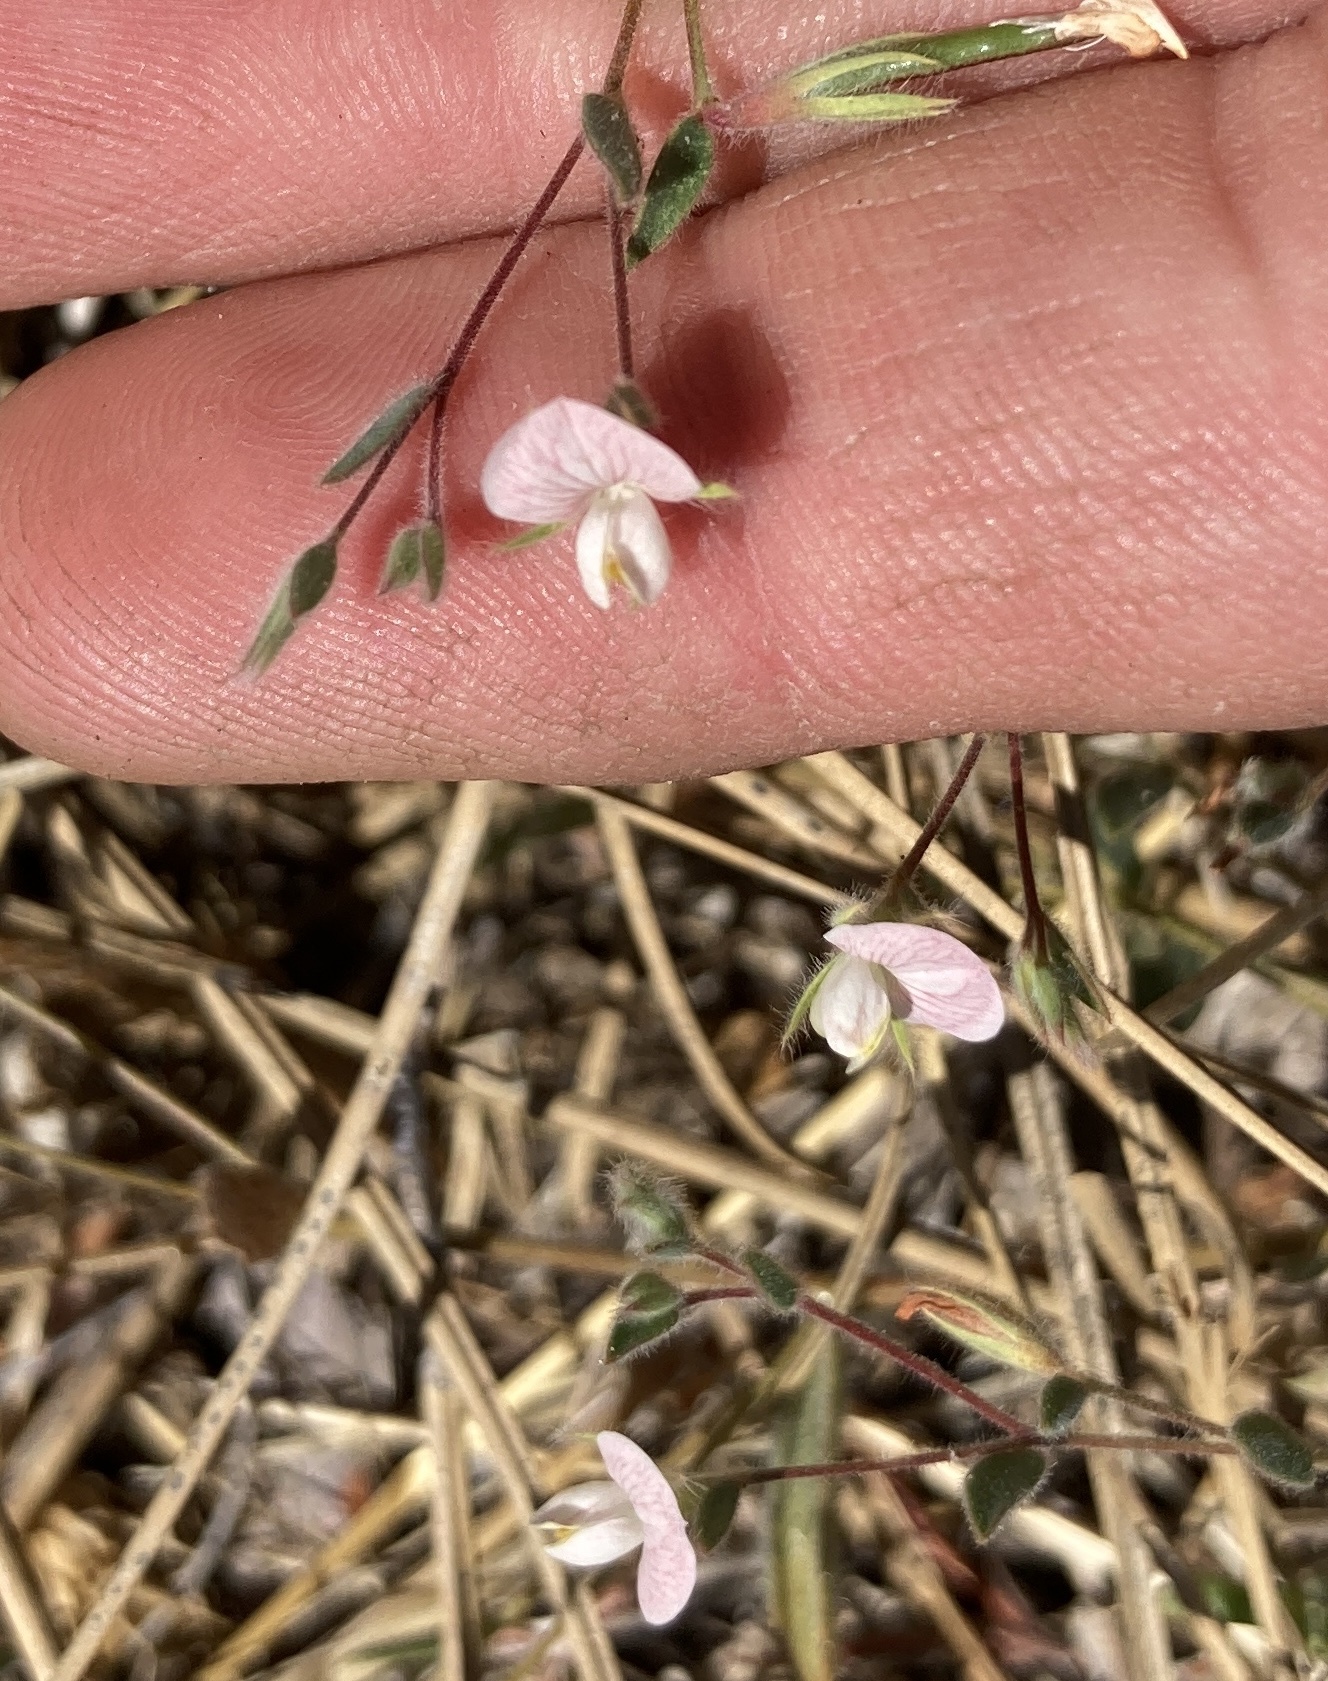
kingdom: Plantae
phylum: Tracheophyta
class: Magnoliopsida
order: Fabales
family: Fabaceae
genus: Acmispon
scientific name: Acmispon americanus
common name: American bird's-foot trefoil
